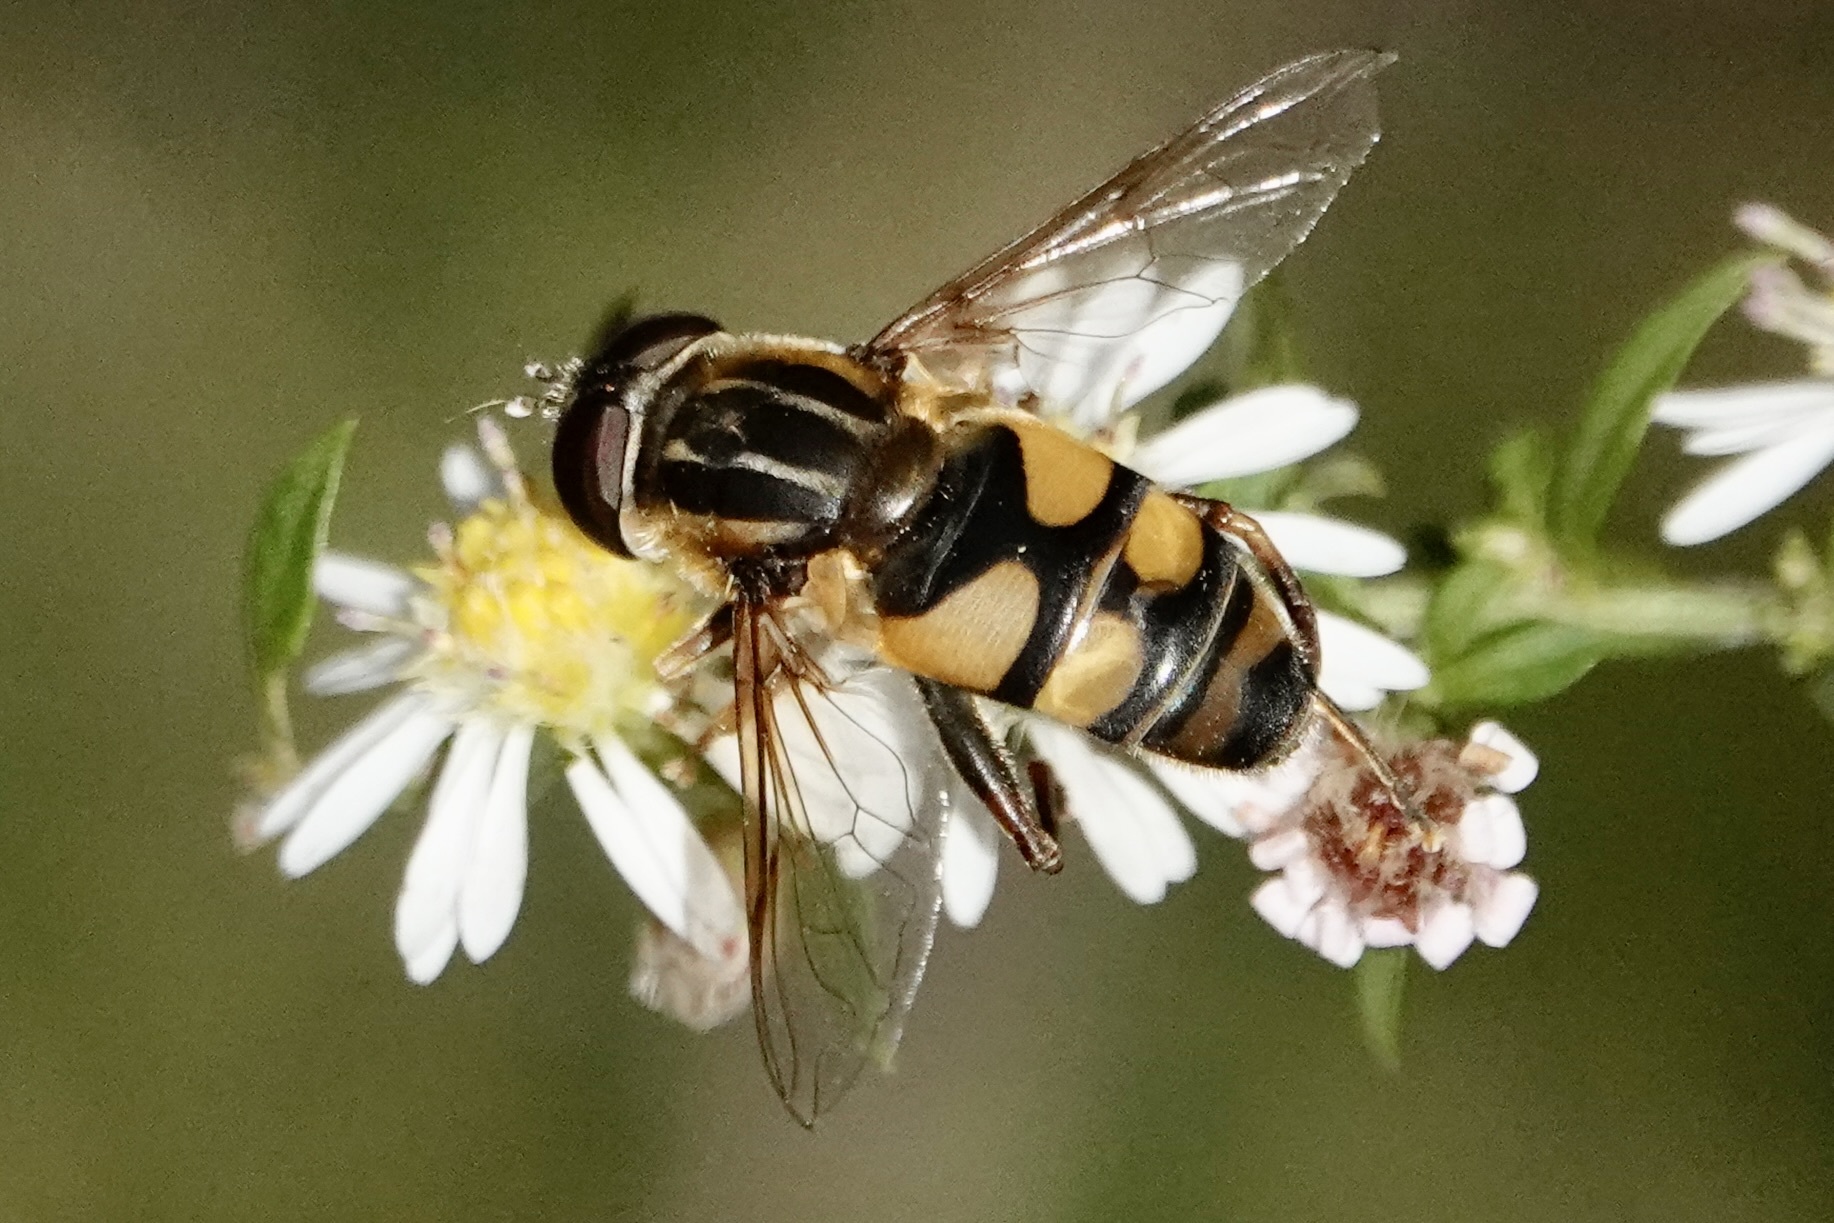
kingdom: Animalia
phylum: Arthropoda
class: Insecta
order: Diptera
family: Syrphidae
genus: Helophilus
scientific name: Helophilus fasciatus
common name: Narrow-headed marsh fly
